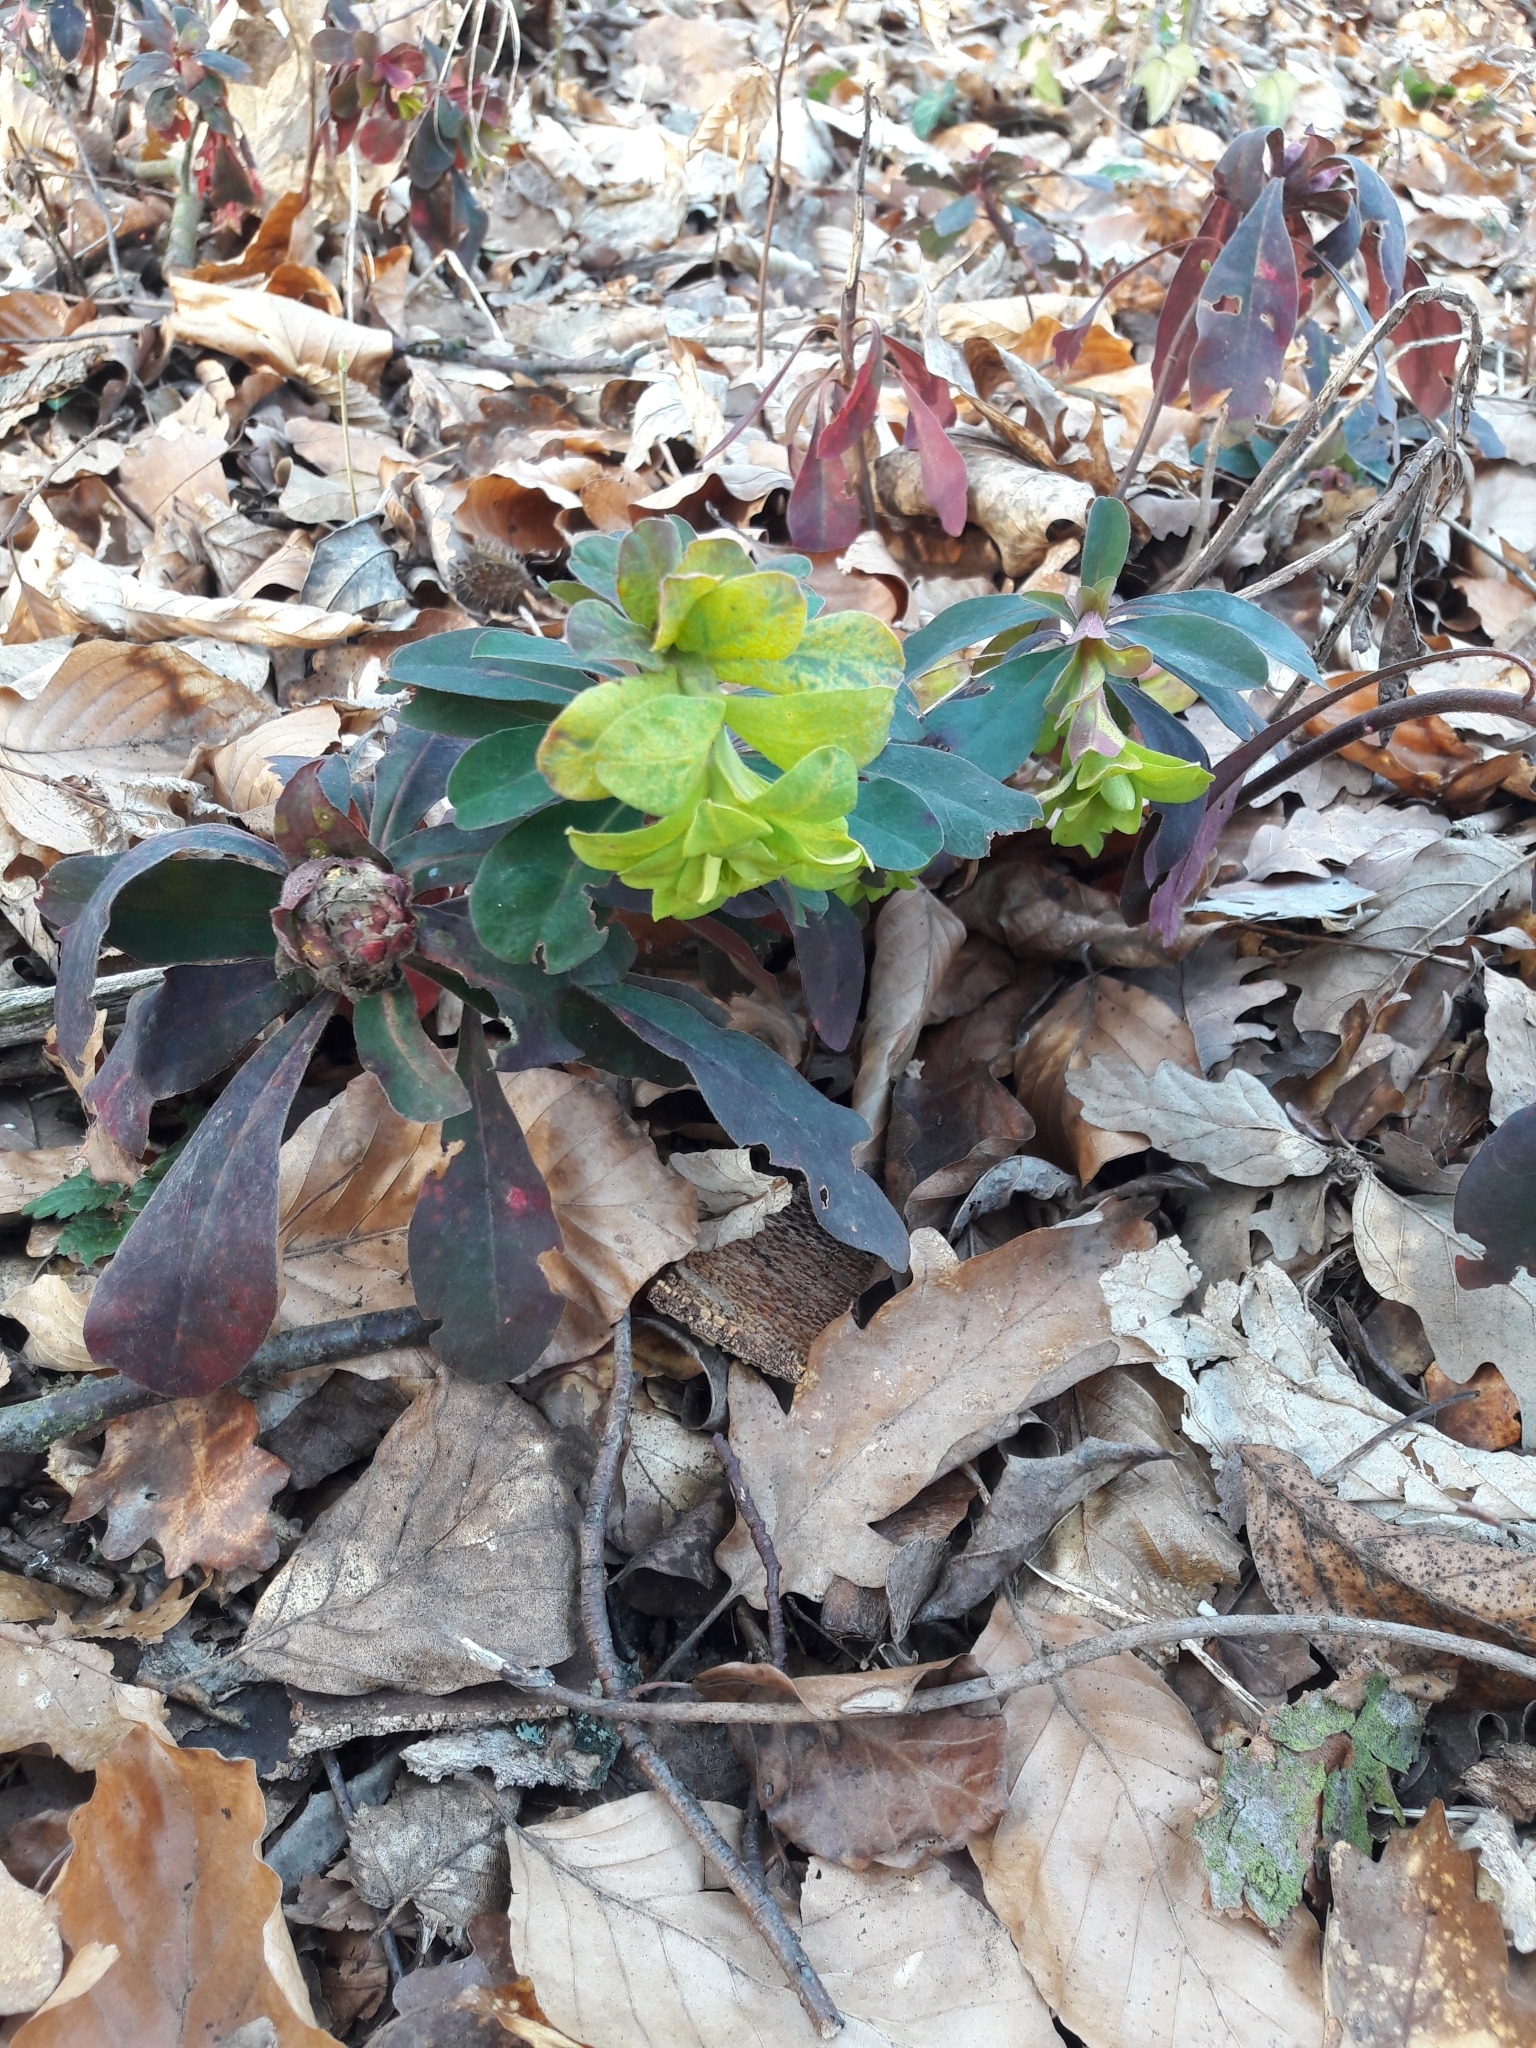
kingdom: Plantae
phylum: Tracheophyta
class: Magnoliopsida
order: Malpighiales
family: Euphorbiaceae
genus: Euphorbia
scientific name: Euphorbia amygdaloides
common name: Wood spurge
